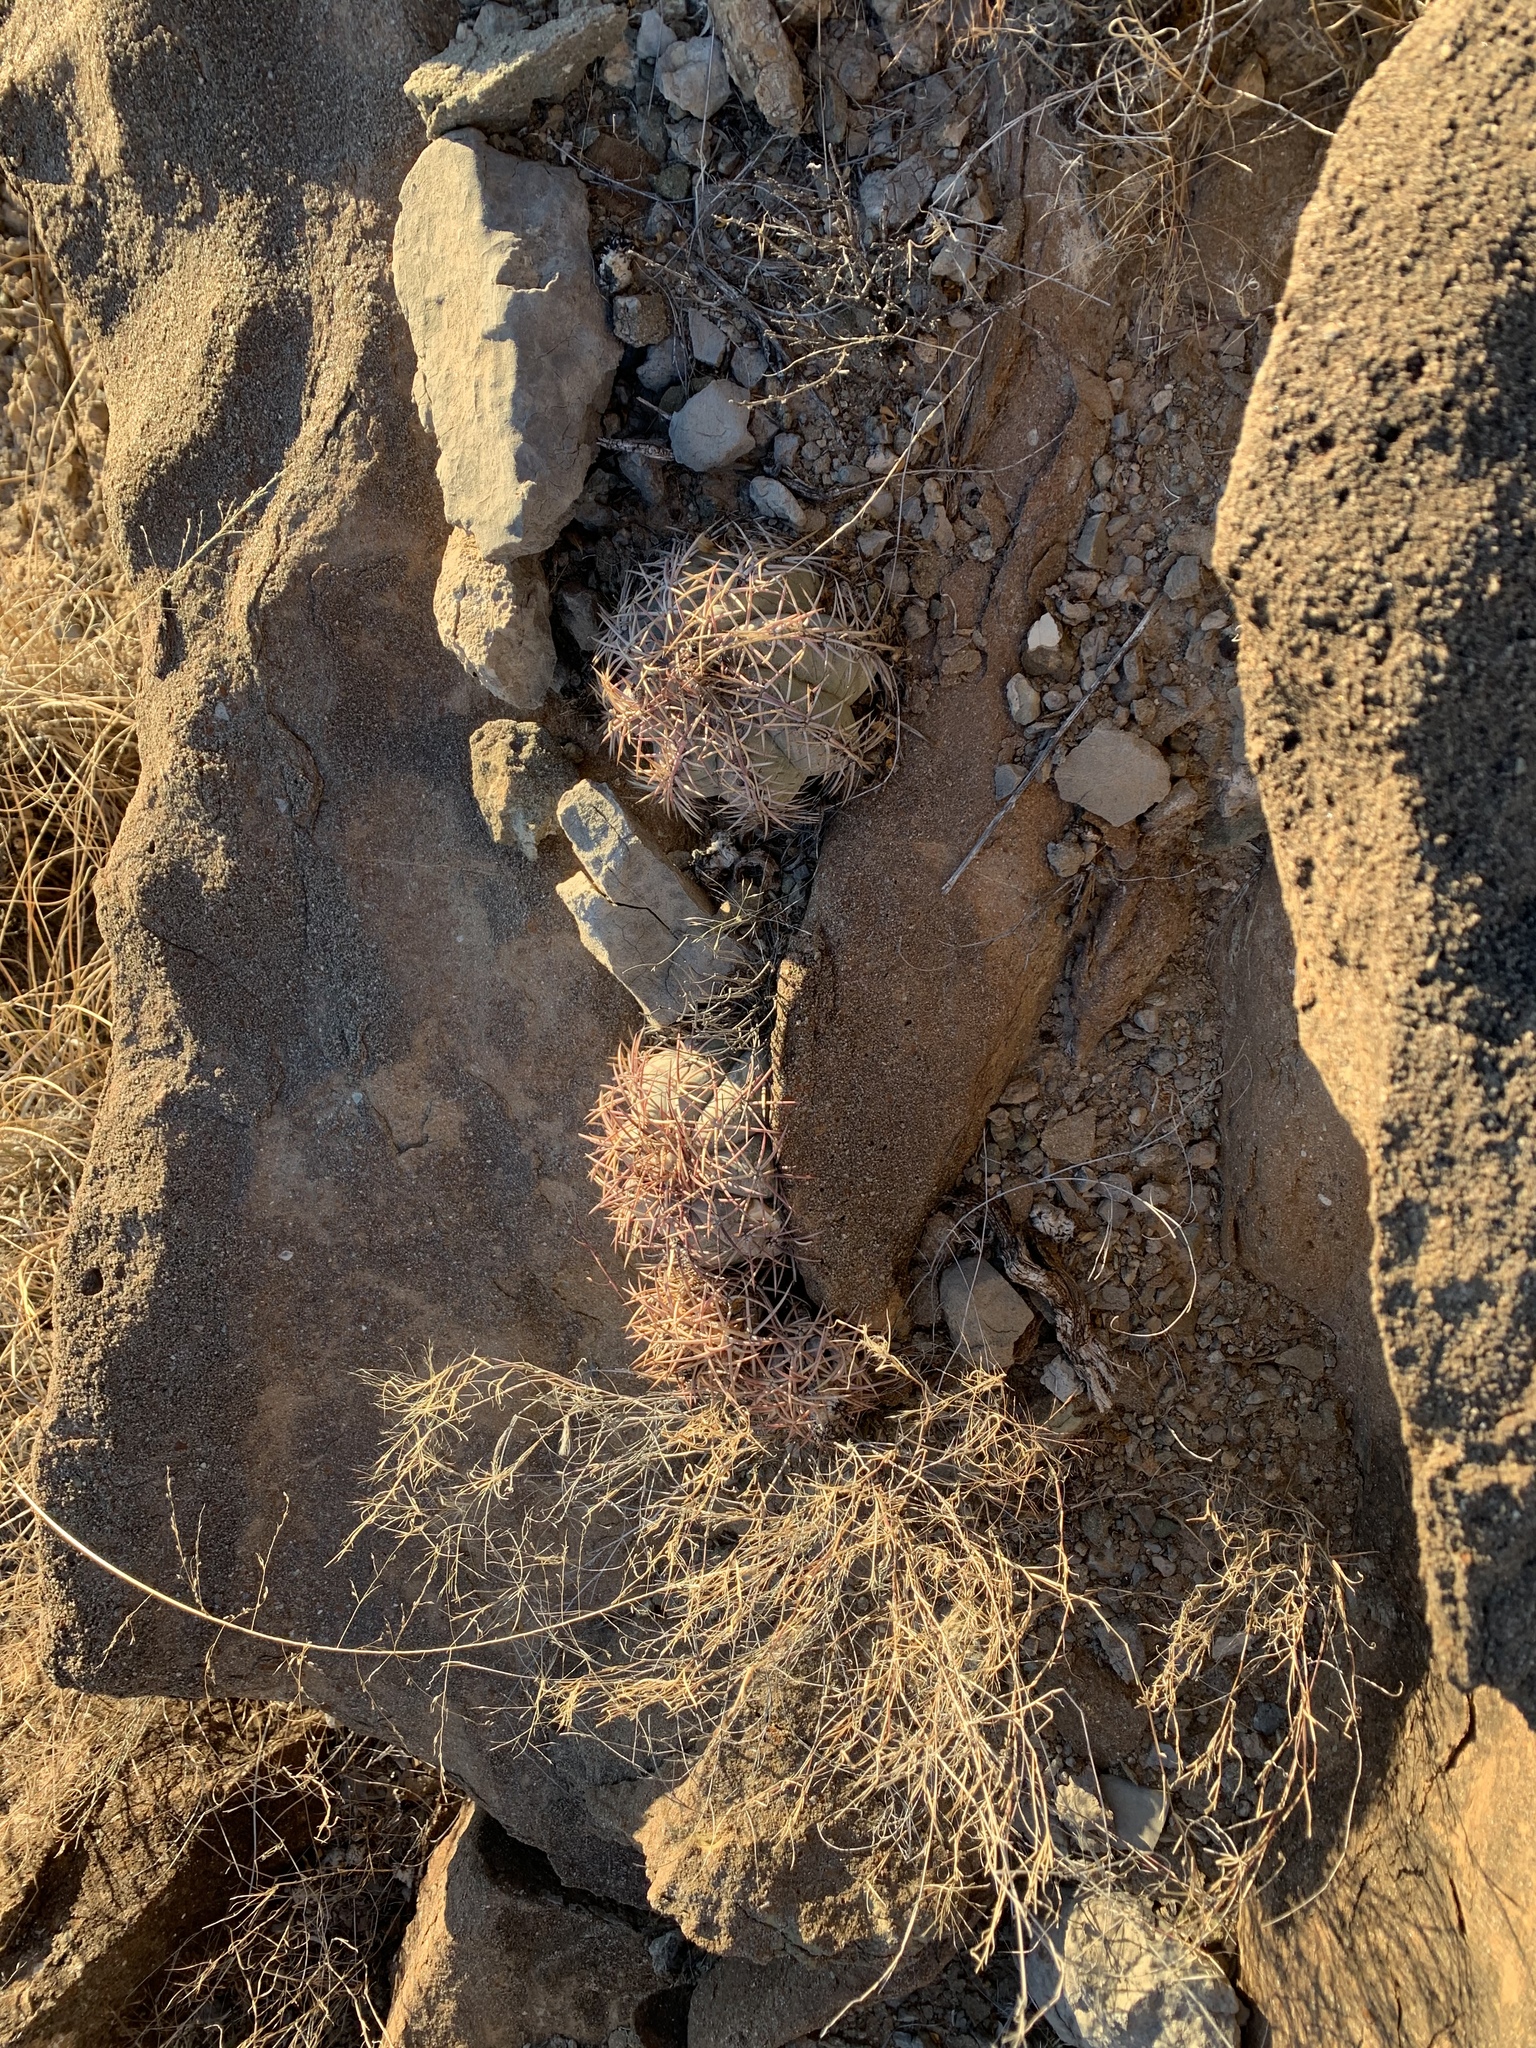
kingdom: Plantae
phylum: Tracheophyta
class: Magnoliopsida
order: Caryophyllales
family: Cactaceae
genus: Echinocactus
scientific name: Echinocactus horizonthalonius
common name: Devilshead
